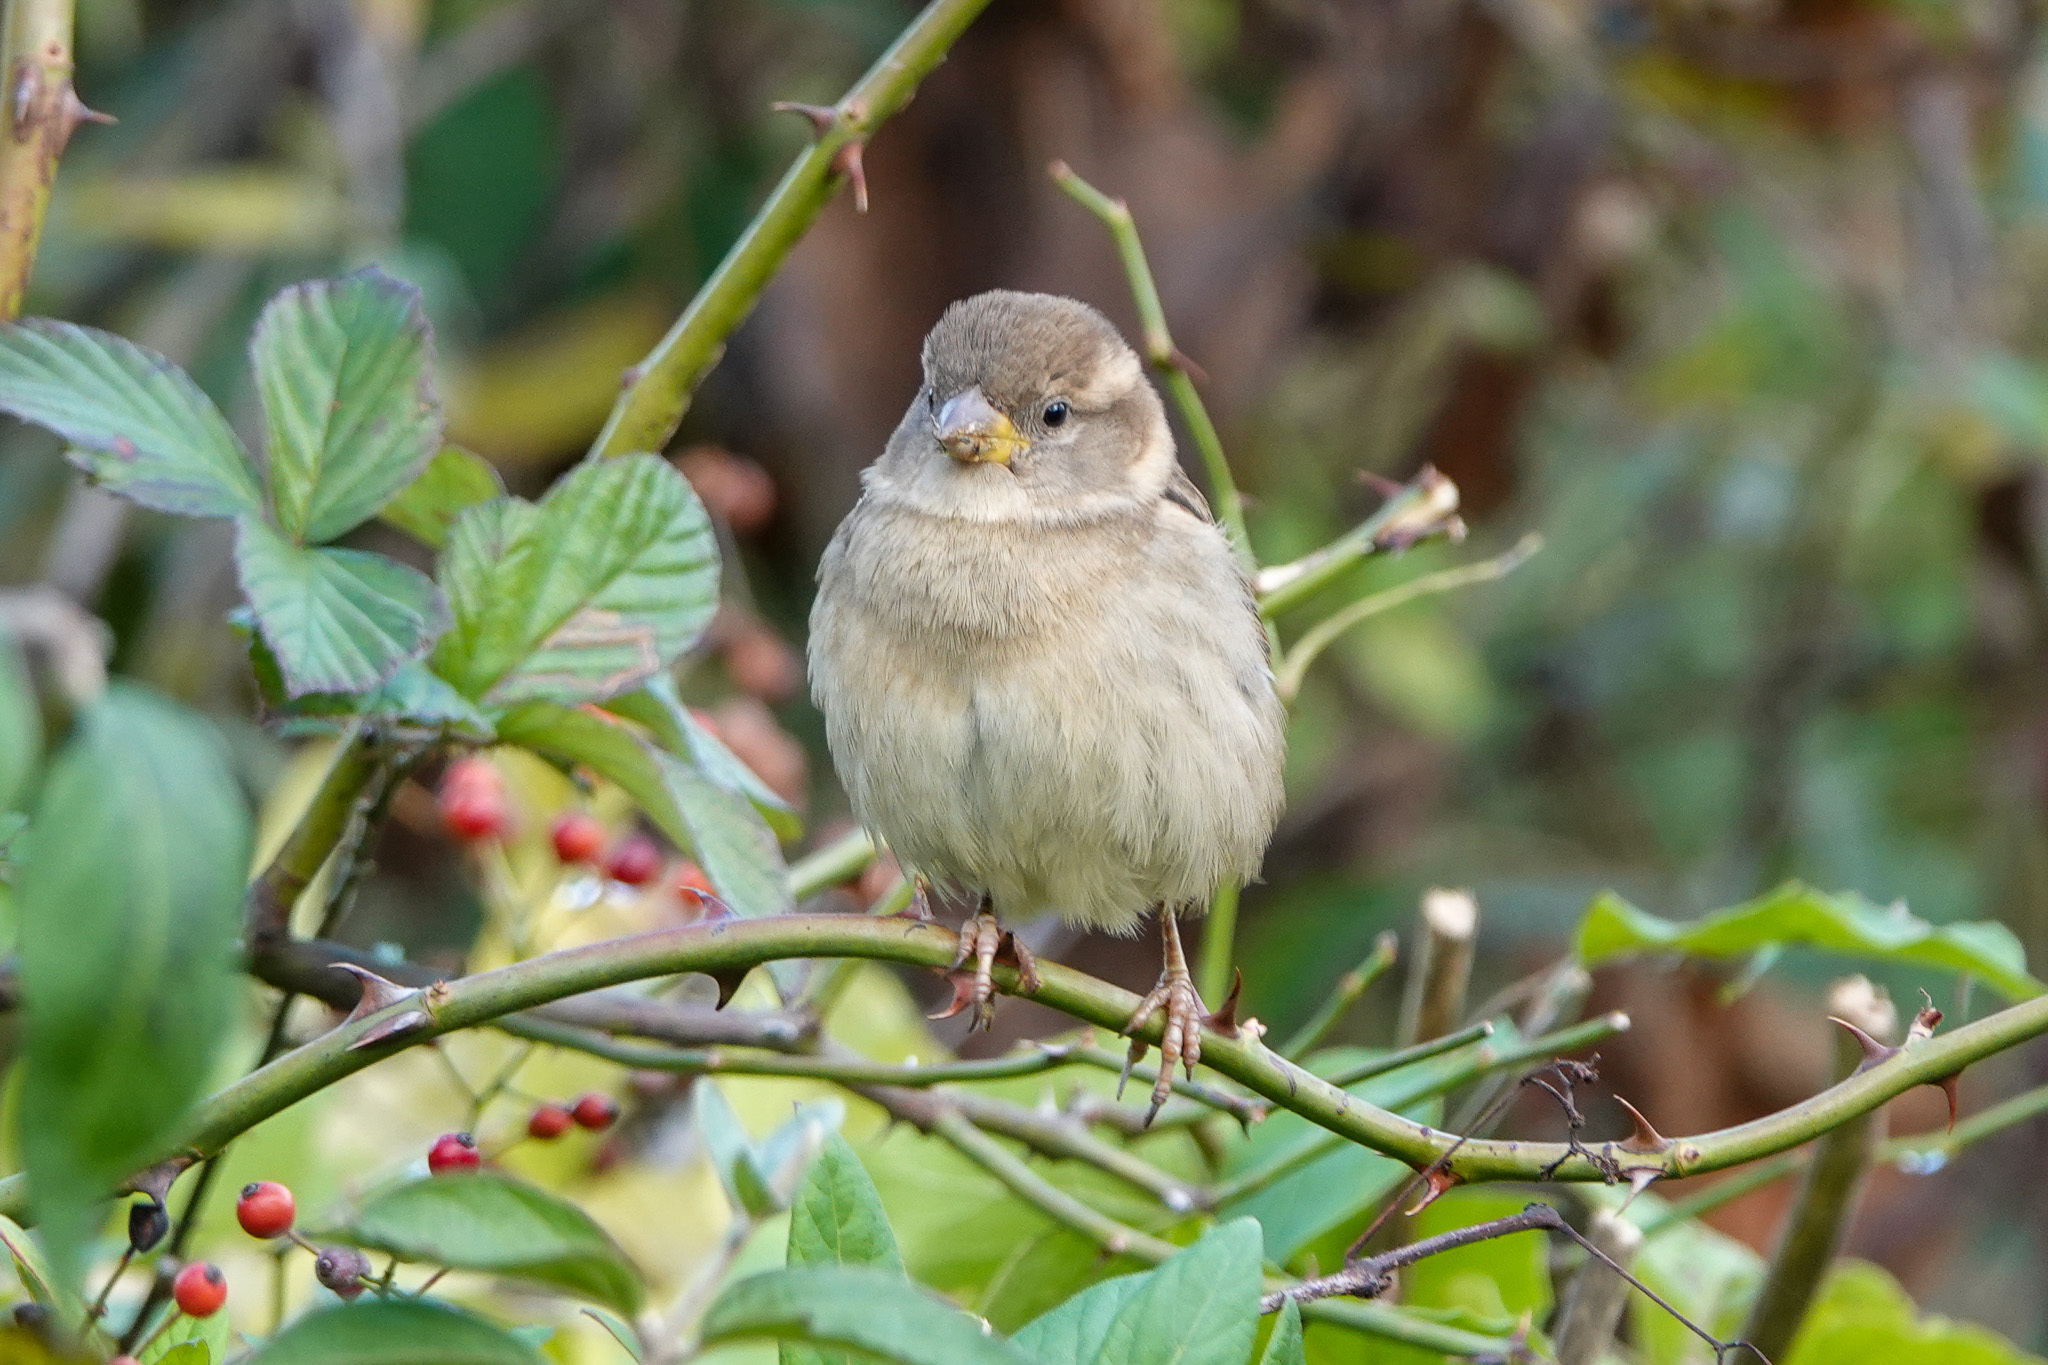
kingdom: Animalia
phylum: Chordata
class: Aves
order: Passeriformes
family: Passeridae
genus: Passer
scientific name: Passer domesticus
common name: House sparrow
